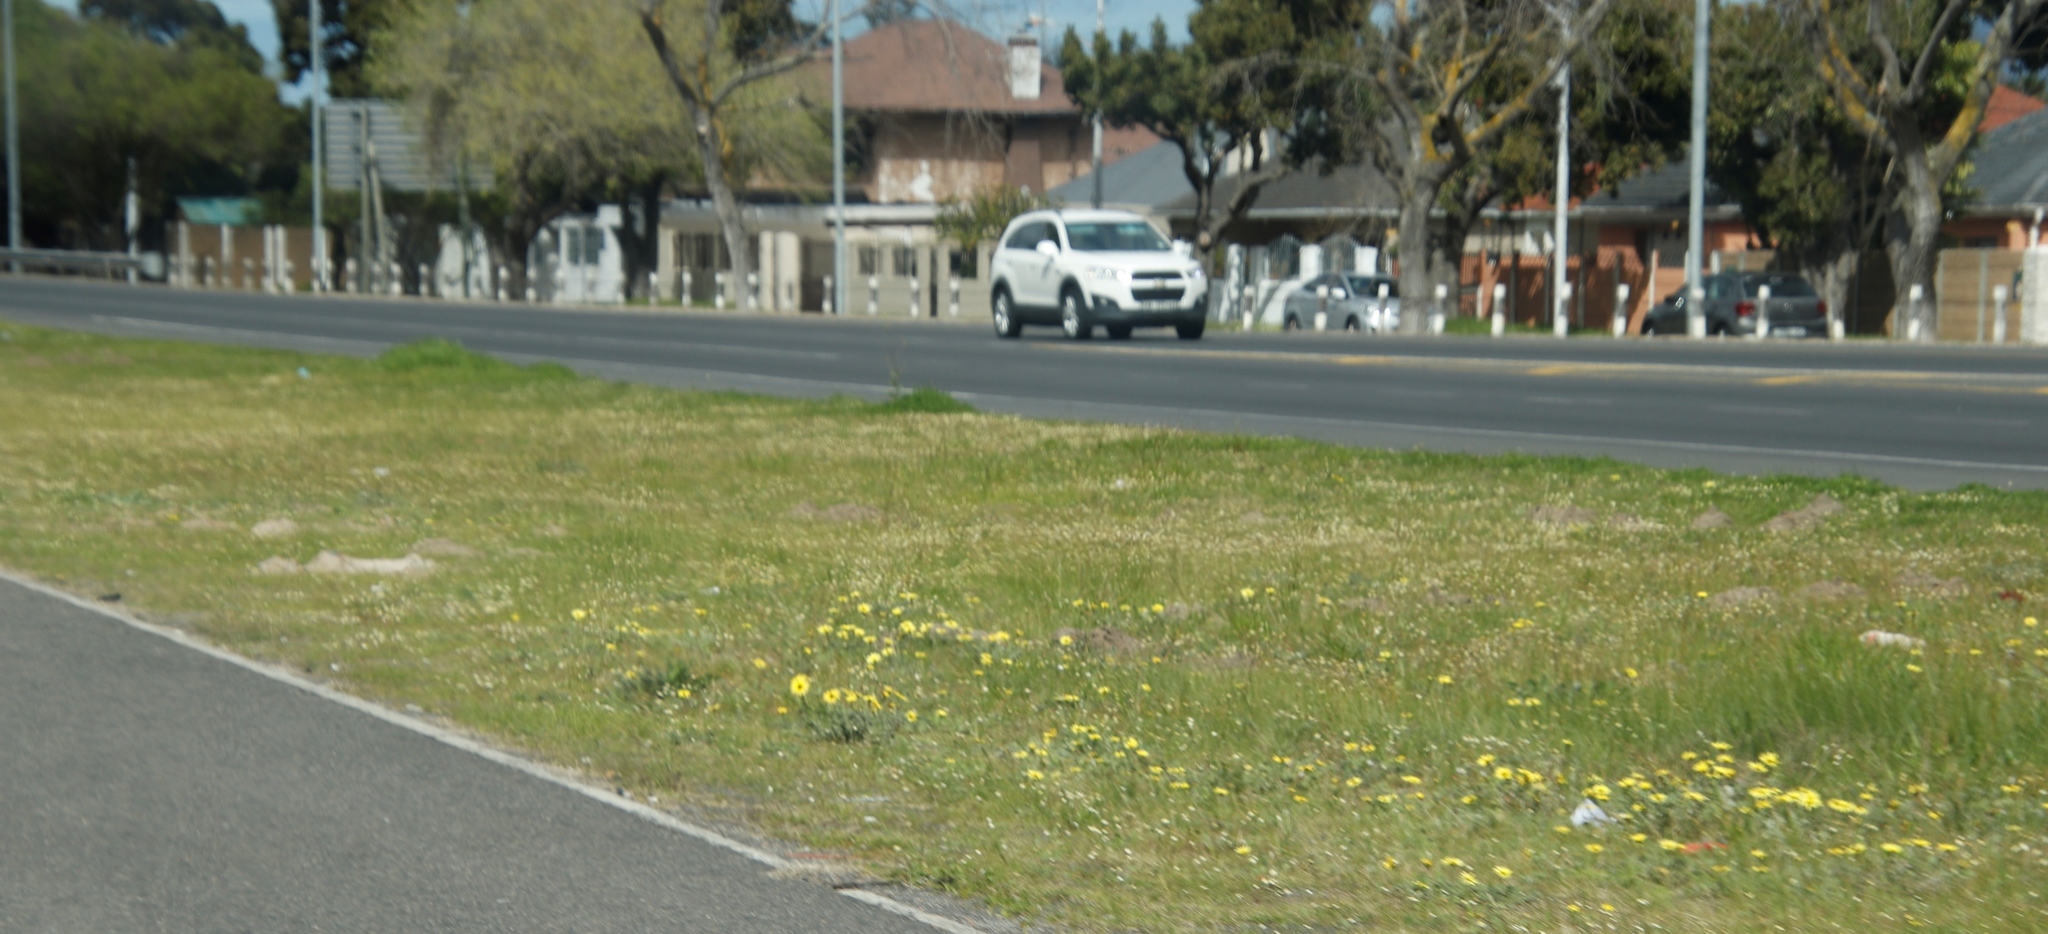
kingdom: Plantae
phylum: Tracheophyta
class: Magnoliopsida
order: Asterales
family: Asteraceae
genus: Cotula
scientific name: Cotula turbinata
